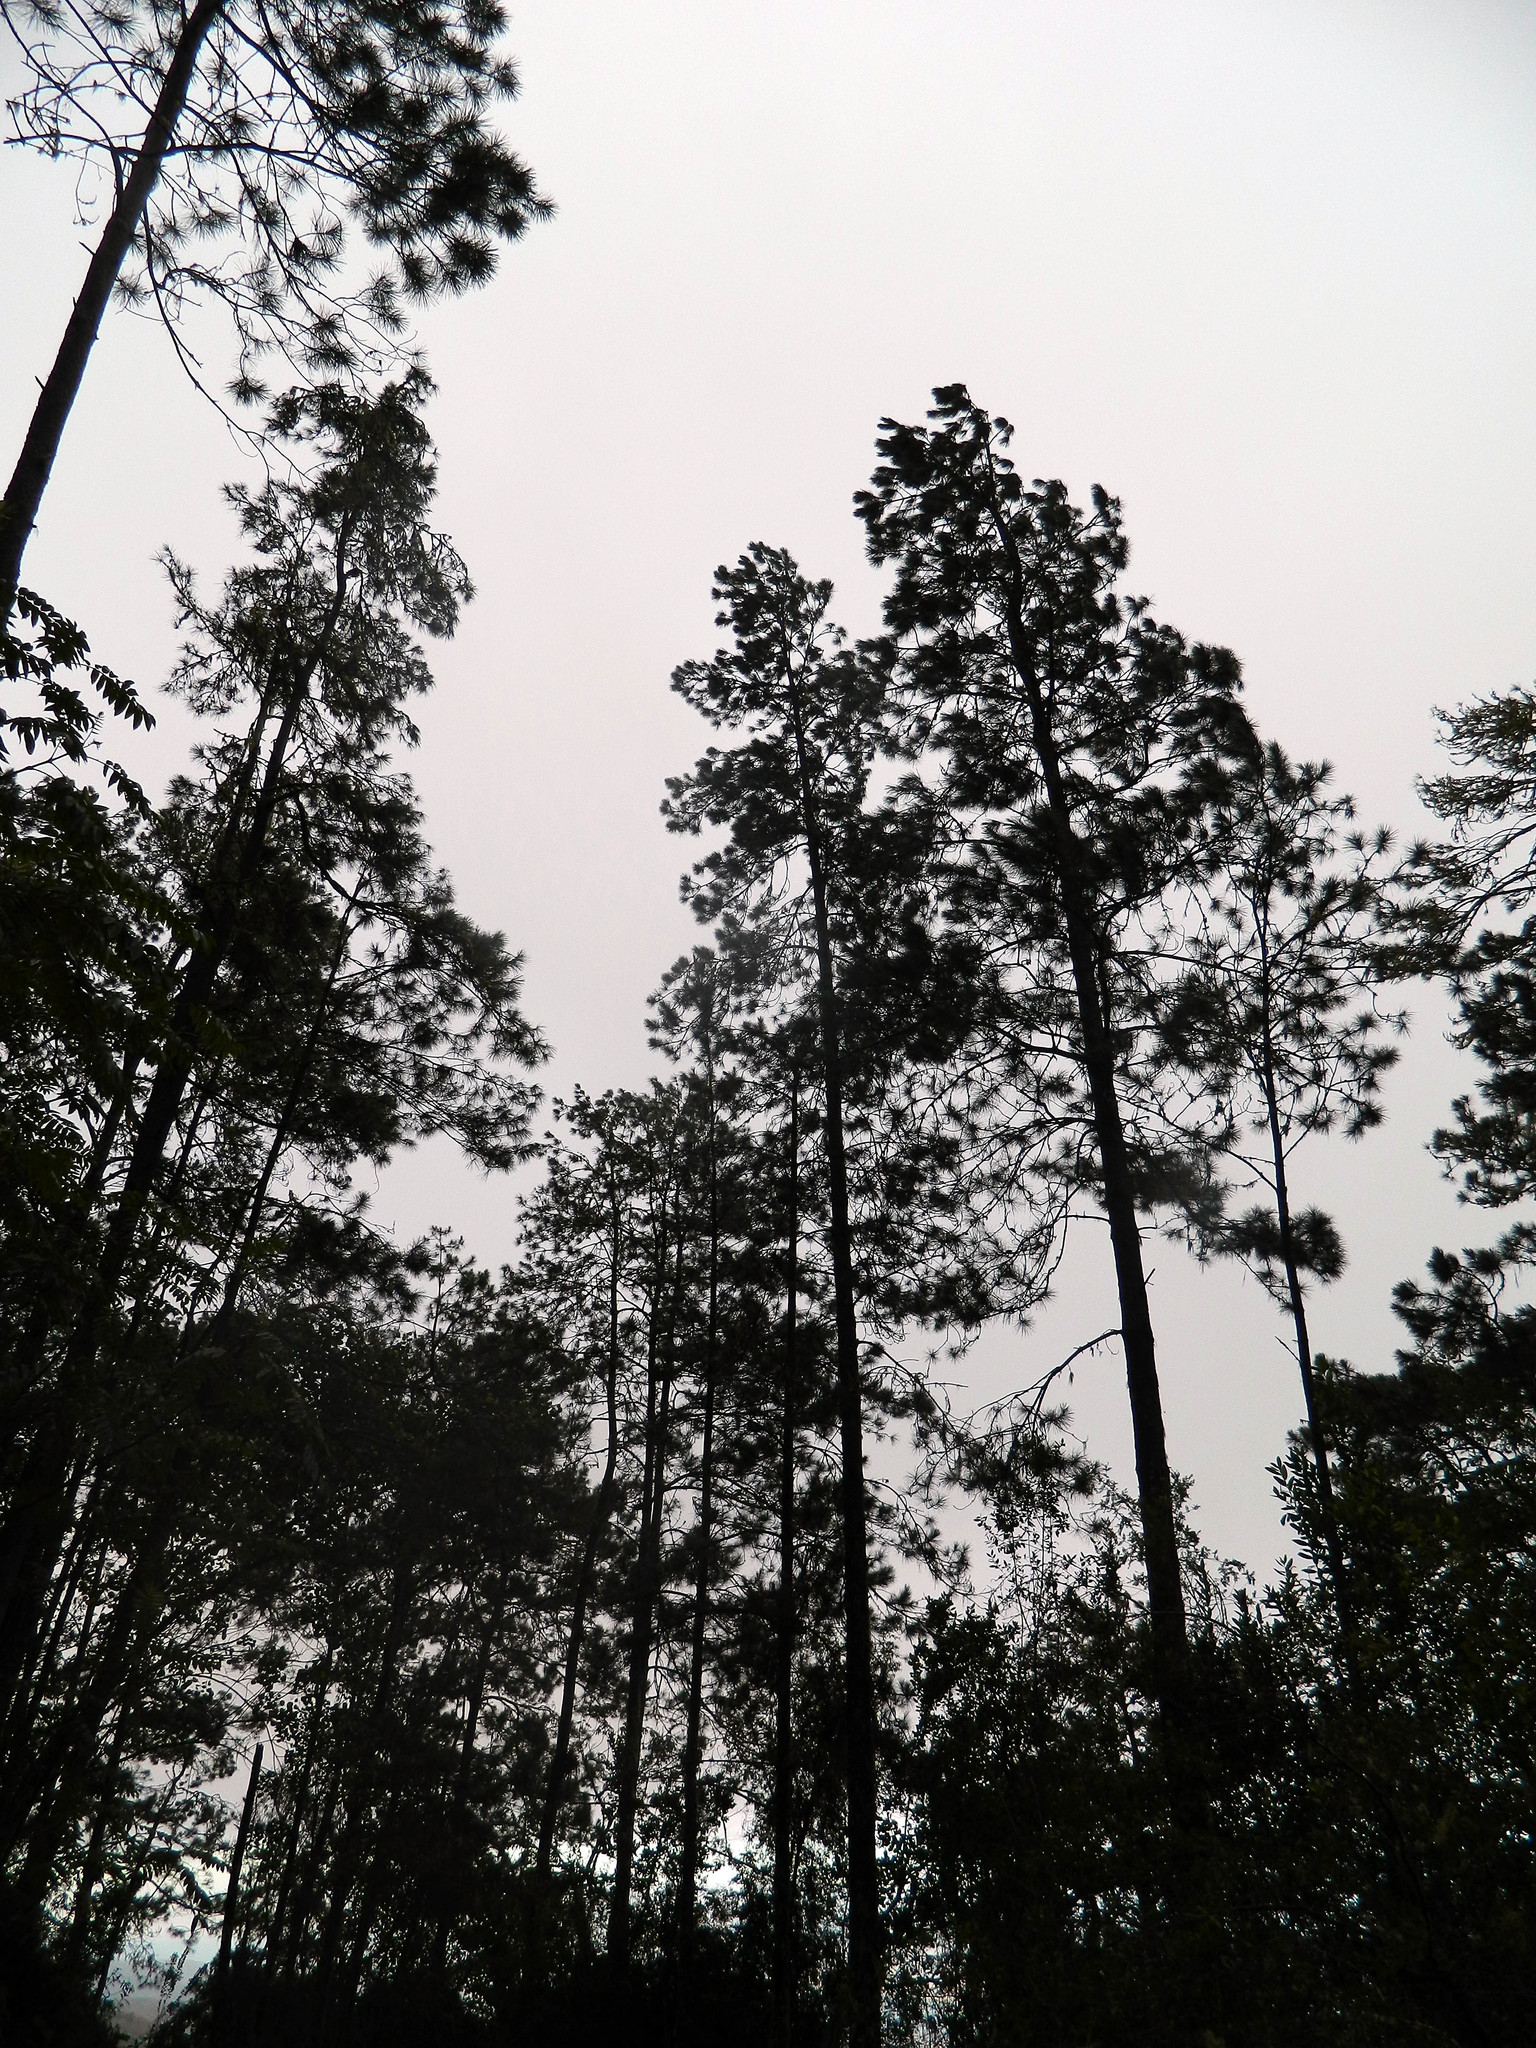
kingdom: Plantae
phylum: Tracheophyta
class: Pinopsida
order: Pinales
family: Pinaceae
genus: Pinus
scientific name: Pinus occidentalis
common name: Hispaniolan pine
